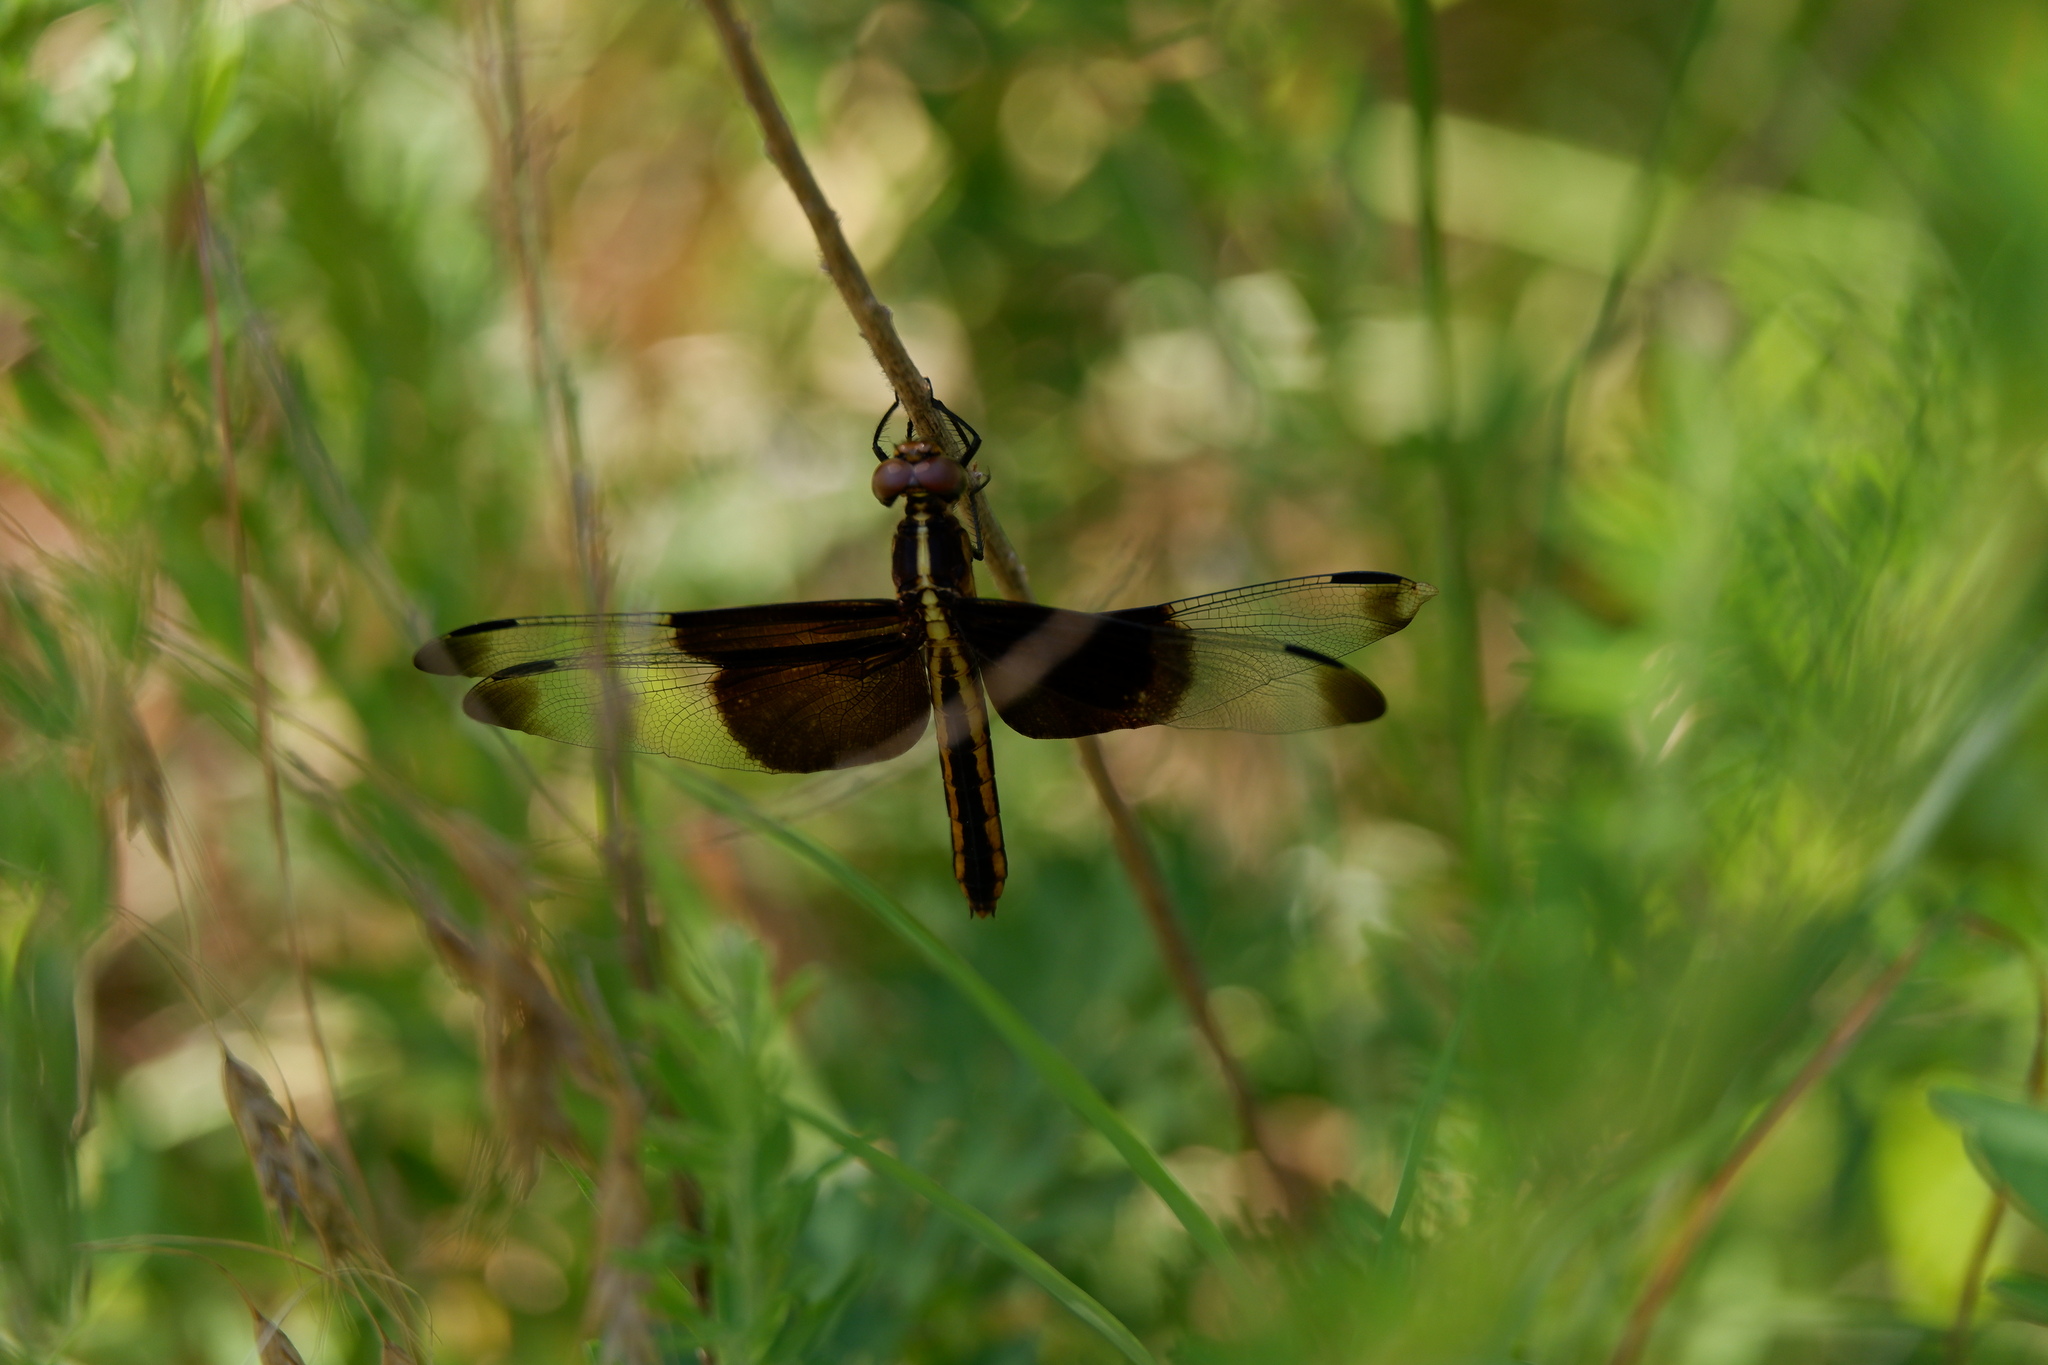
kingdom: Animalia
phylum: Arthropoda
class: Insecta
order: Odonata
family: Libellulidae
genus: Libellula
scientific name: Libellula luctuosa
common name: Widow skimmer
